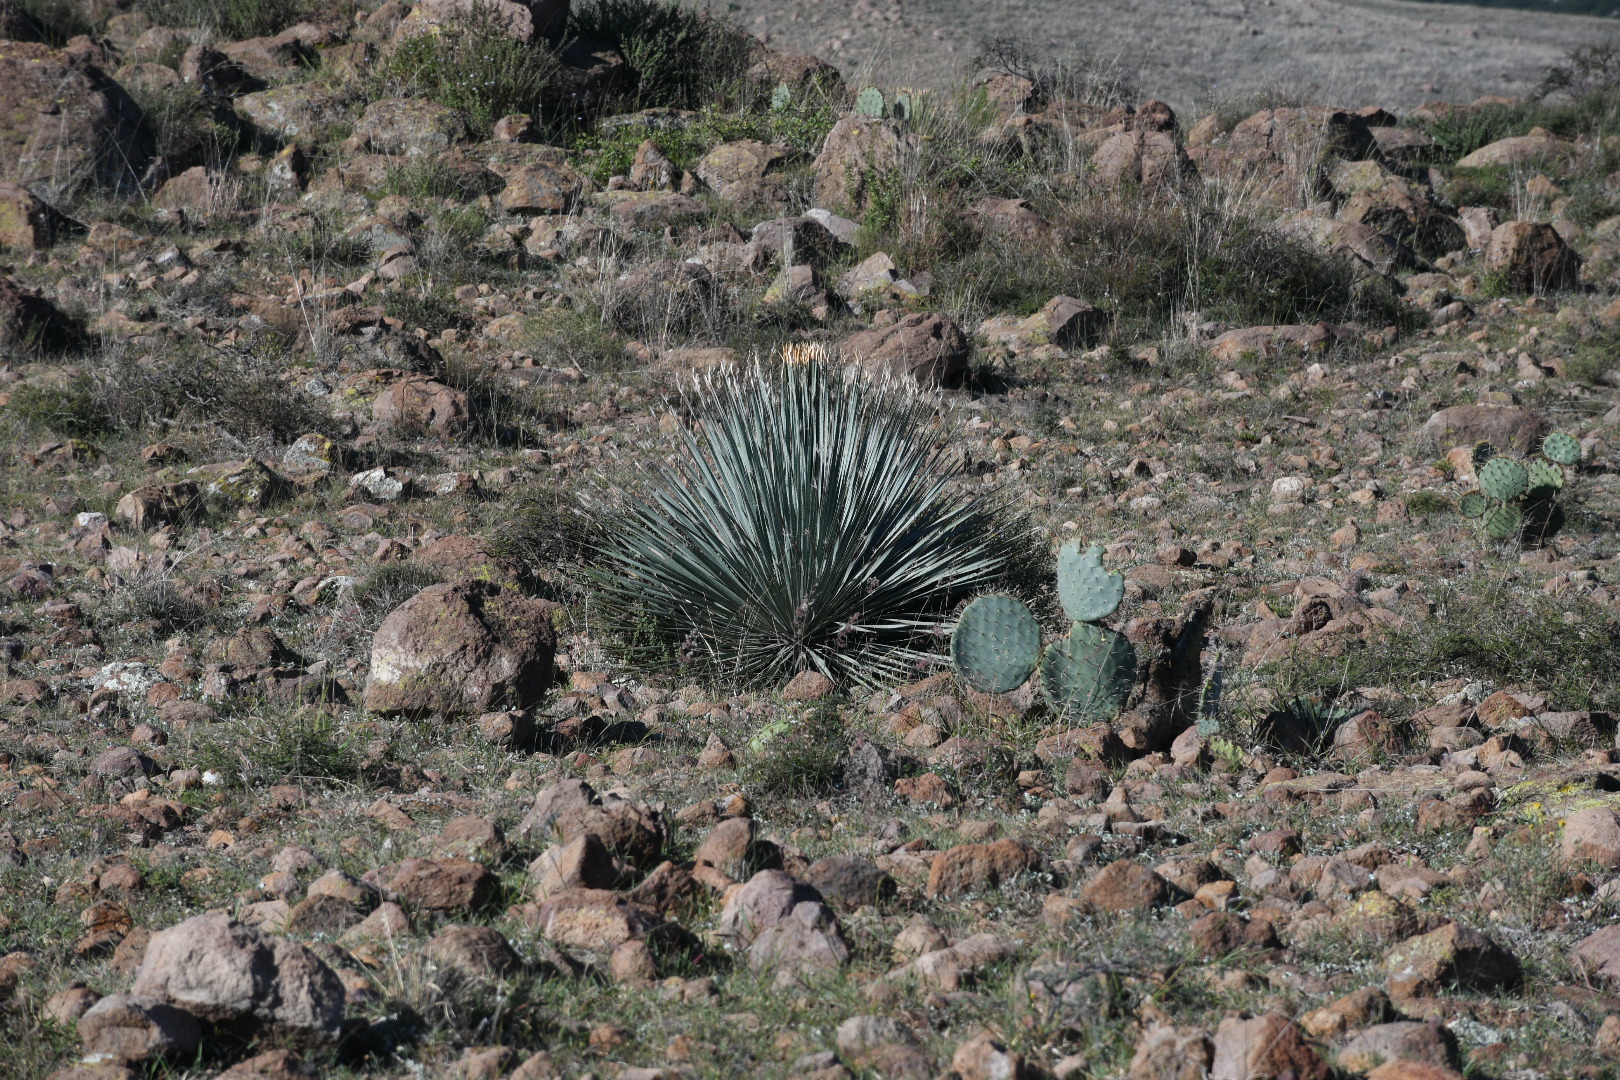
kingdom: Plantae
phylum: Tracheophyta
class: Liliopsida
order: Asparagales
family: Asparagaceae
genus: Dasylirion
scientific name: Dasylirion parryanum
